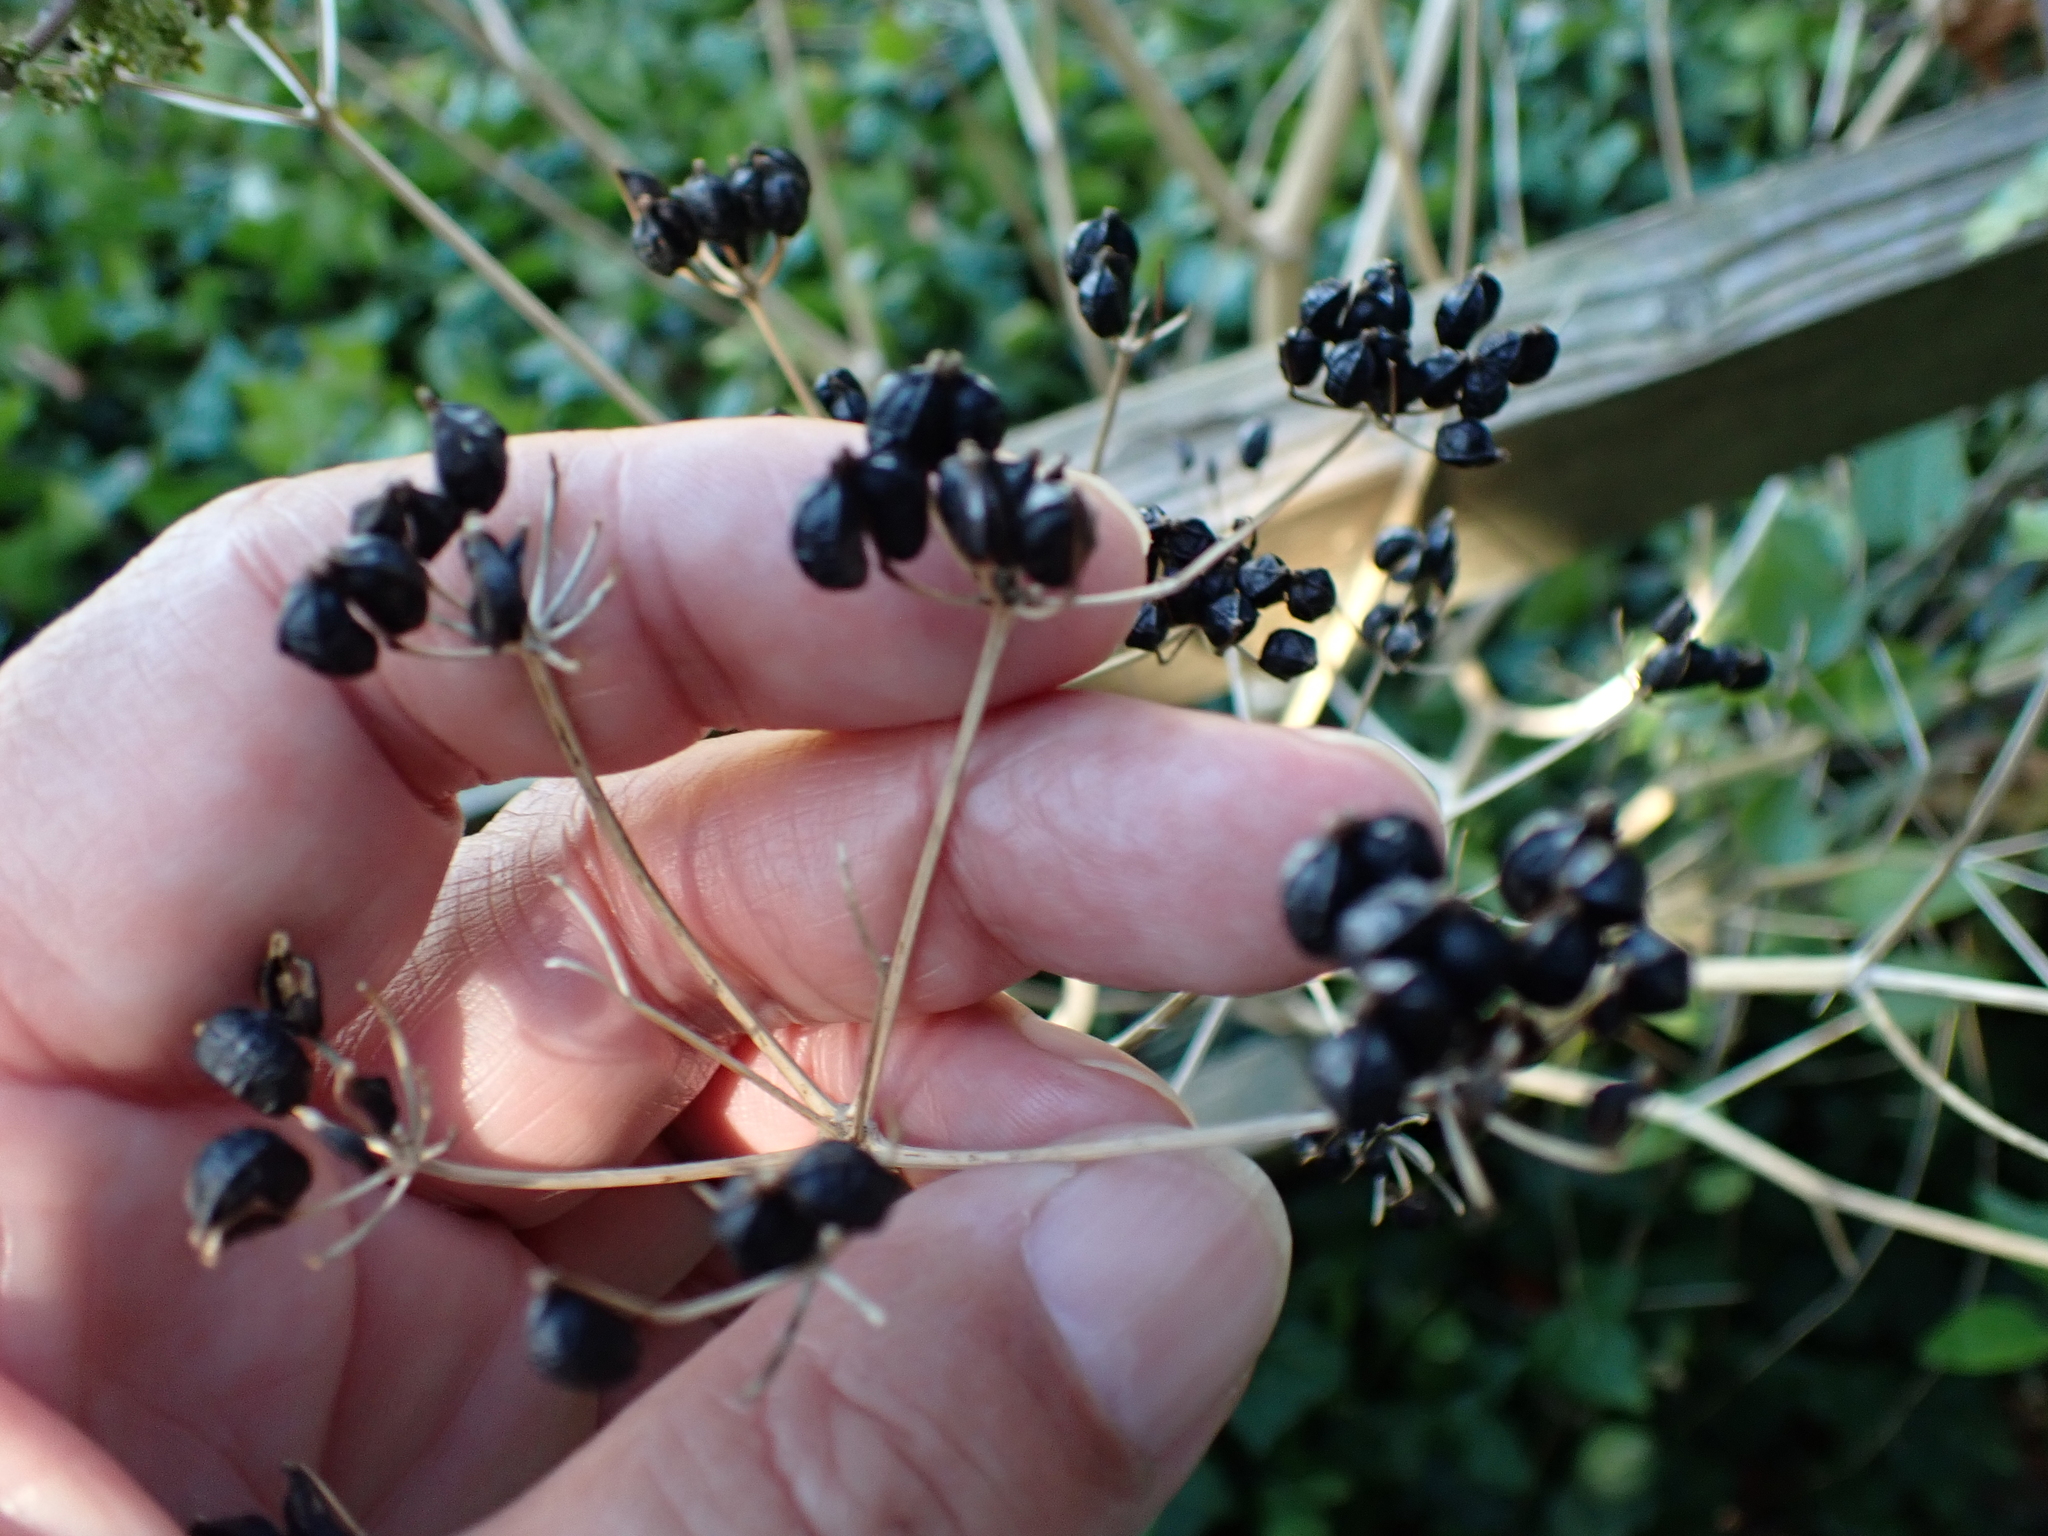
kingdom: Plantae
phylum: Tracheophyta
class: Magnoliopsida
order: Apiales
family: Apiaceae
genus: Smyrnium
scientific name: Smyrnium olusatrum
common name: Alexanders
